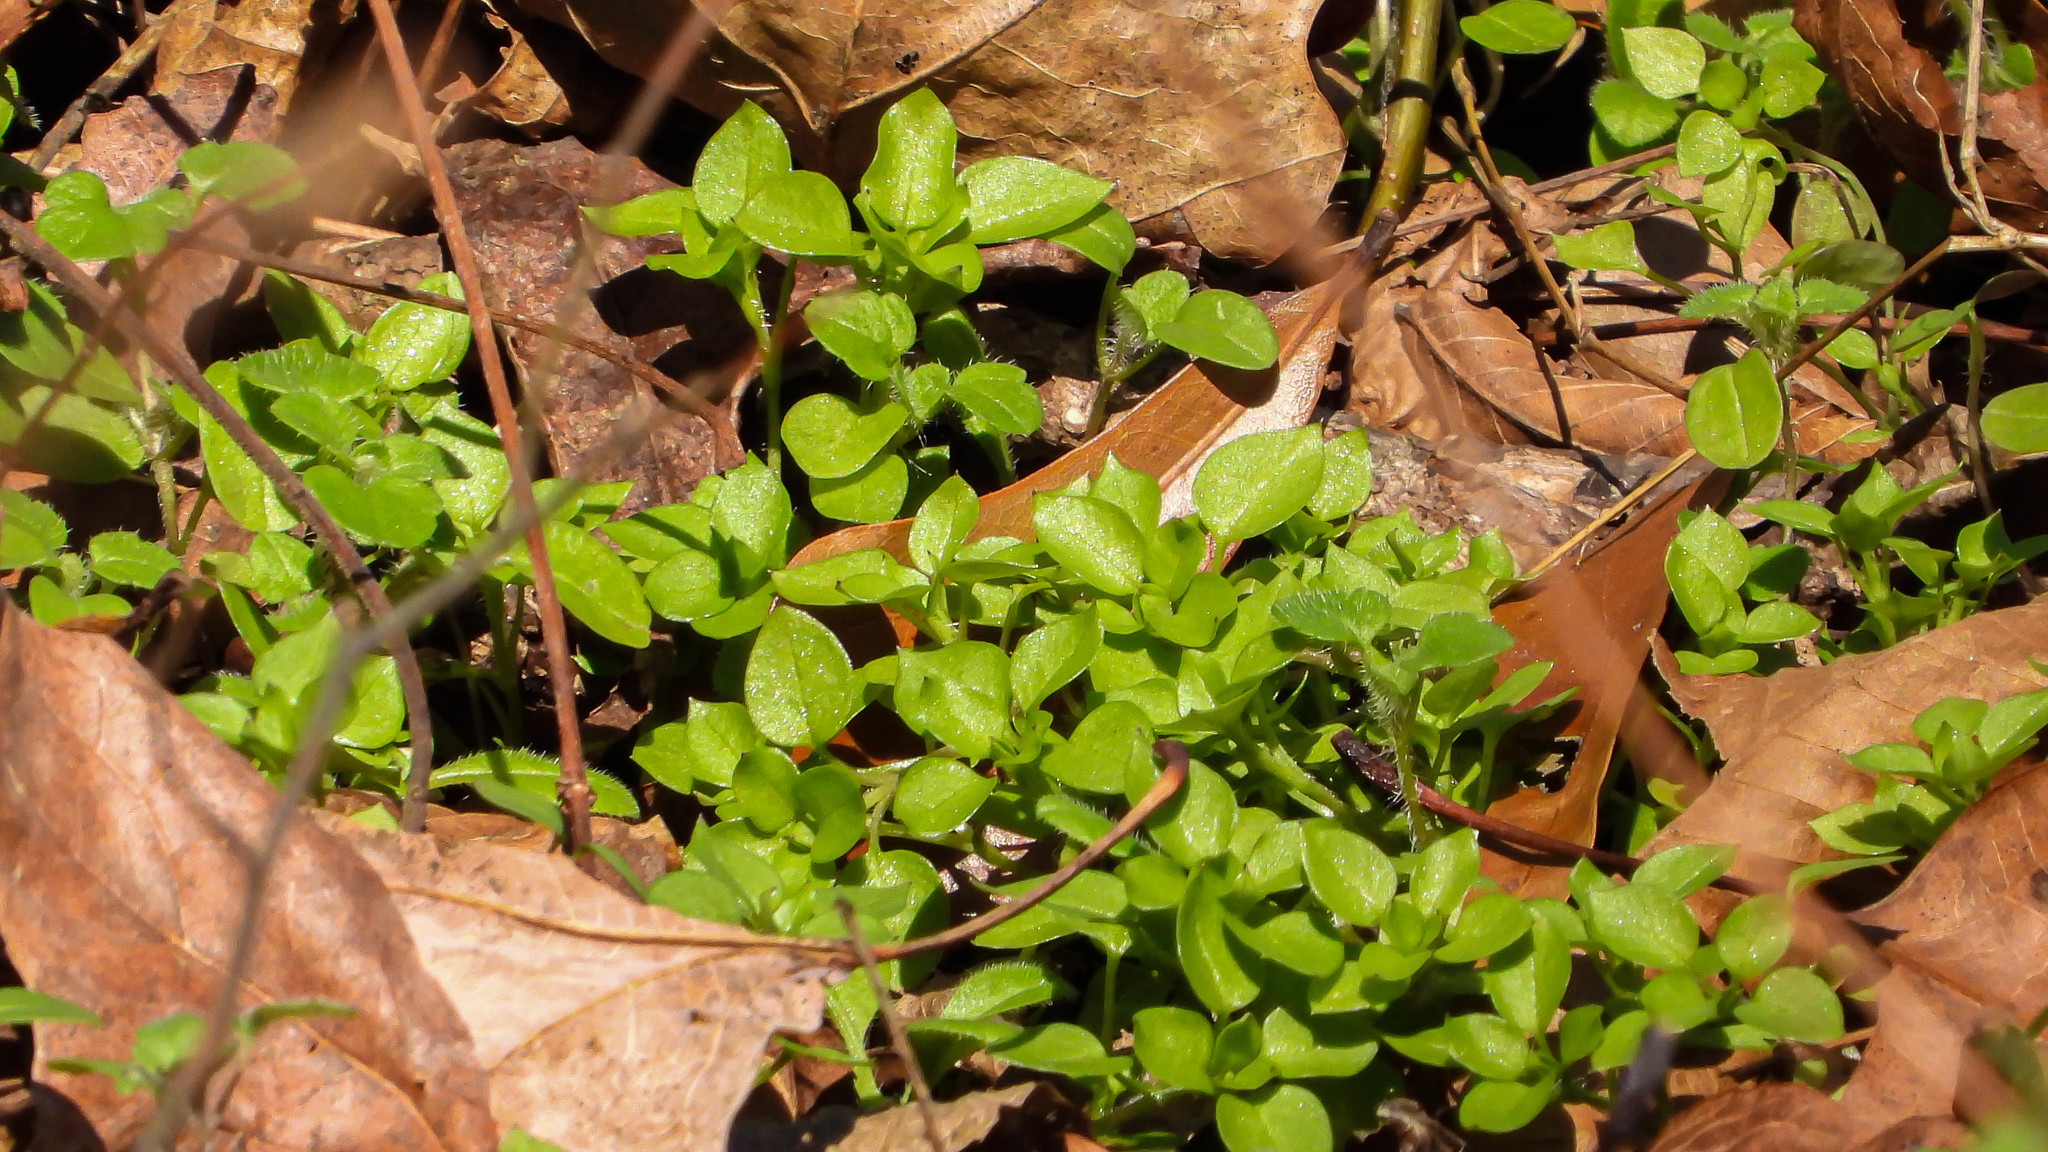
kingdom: Plantae
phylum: Tracheophyta
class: Magnoliopsida
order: Caryophyllales
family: Caryophyllaceae
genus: Stellaria
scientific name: Stellaria media
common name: Common chickweed
